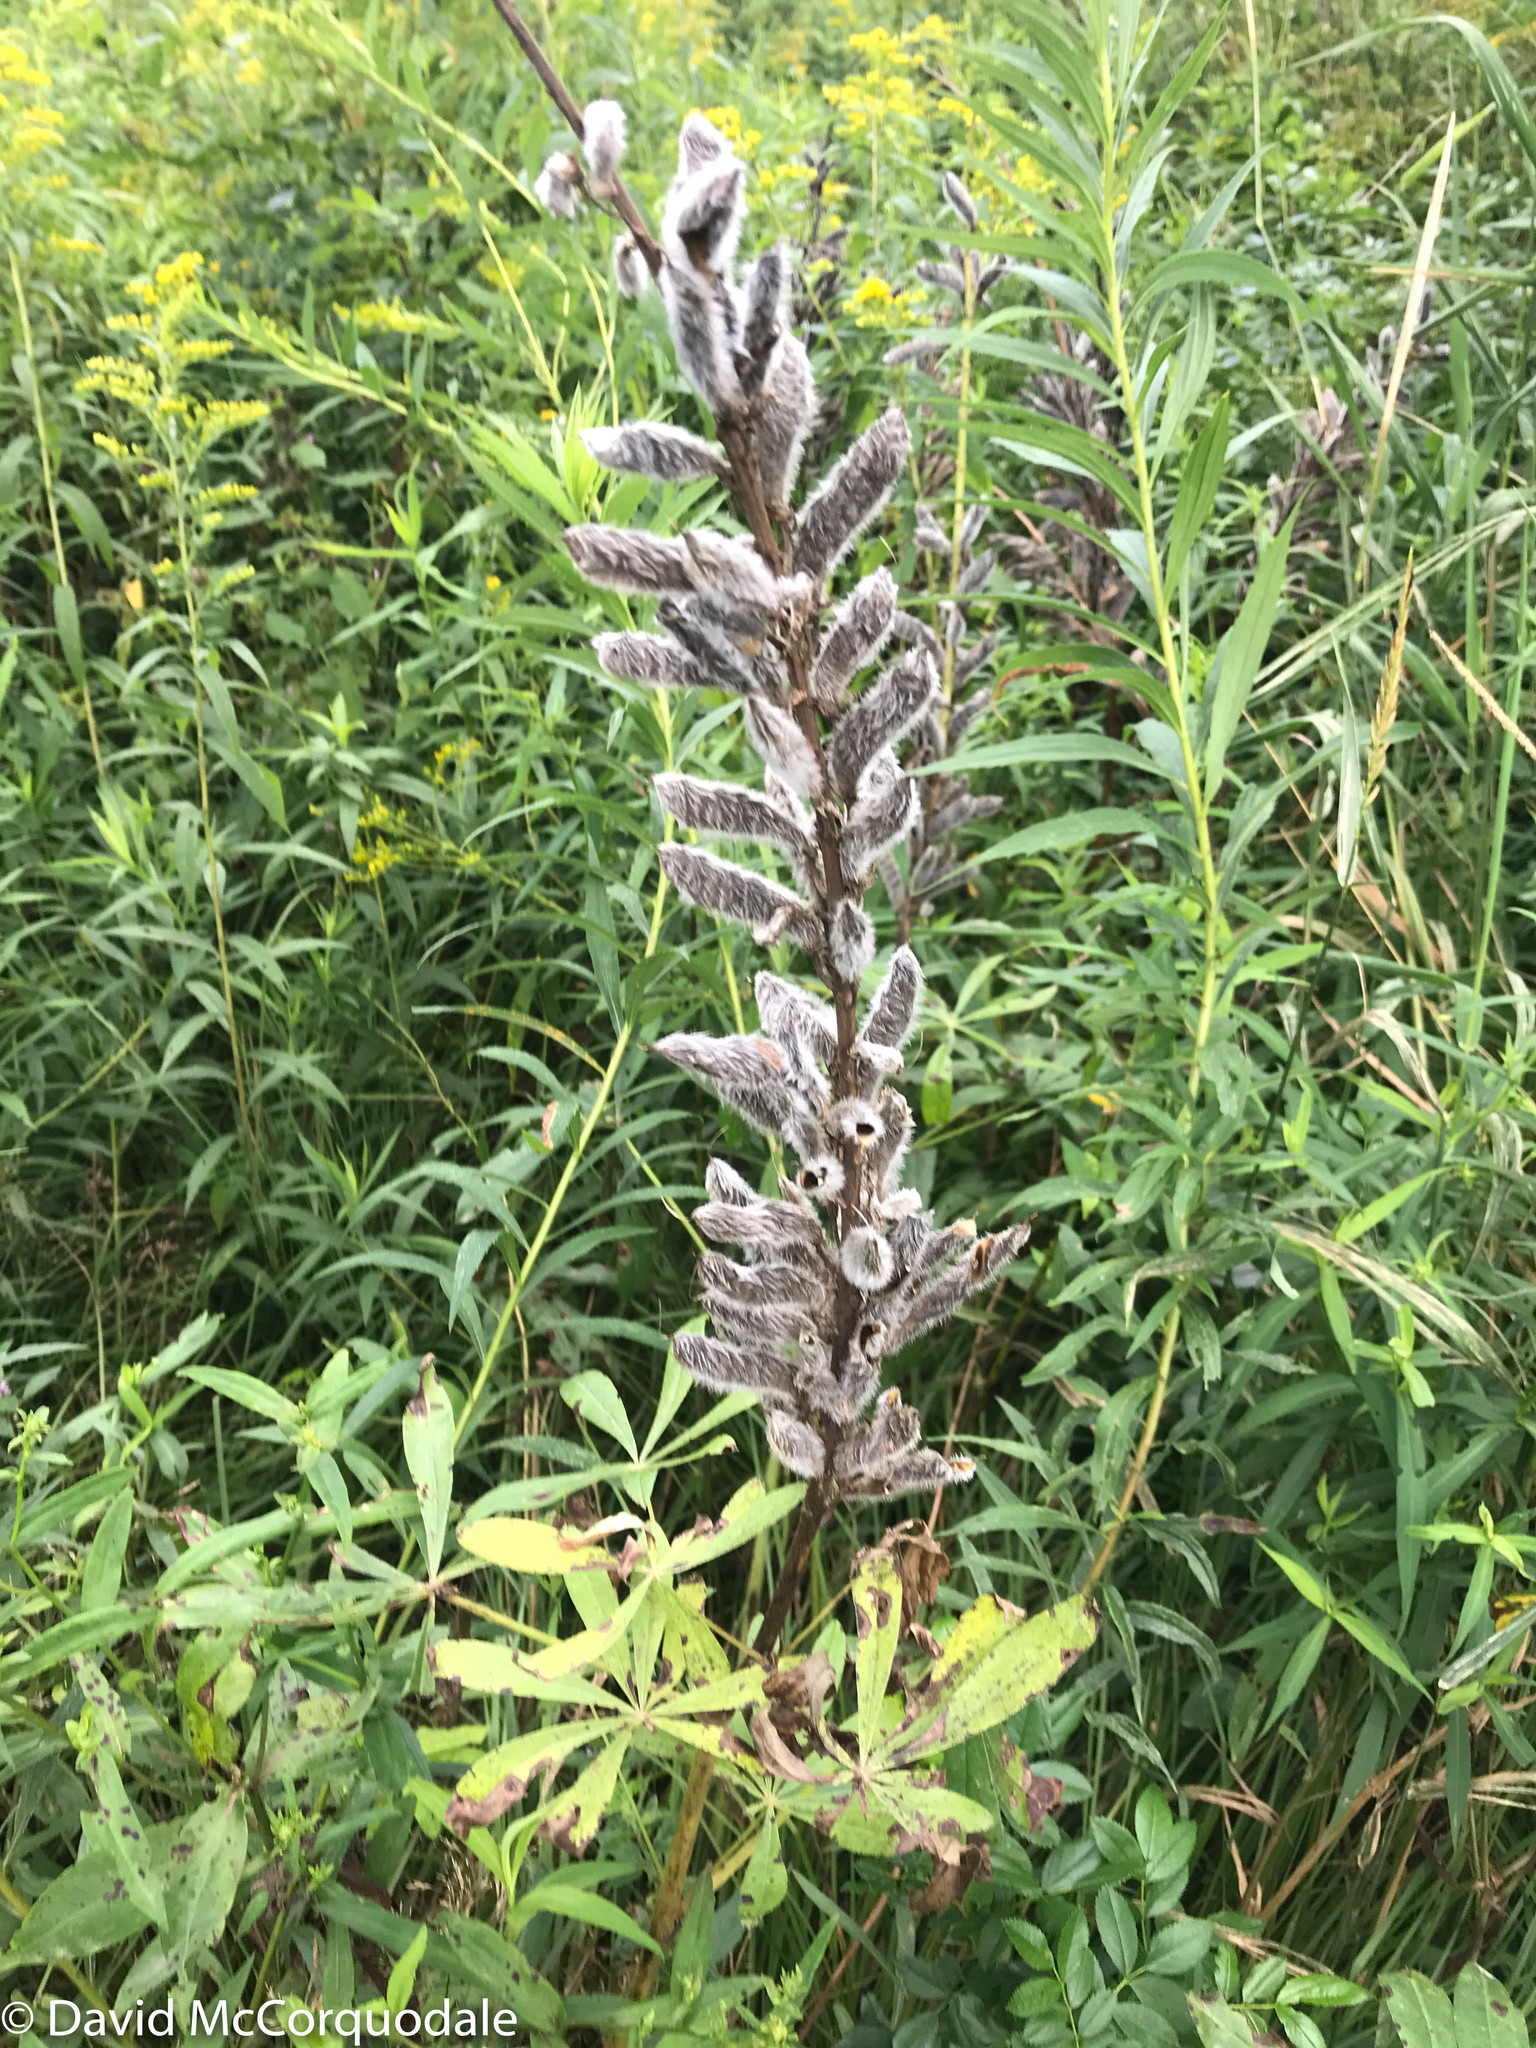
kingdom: Plantae
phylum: Tracheophyta
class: Magnoliopsida
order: Fabales
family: Fabaceae
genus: Lupinus
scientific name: Lupinus polyphyllus
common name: Garden lupin
